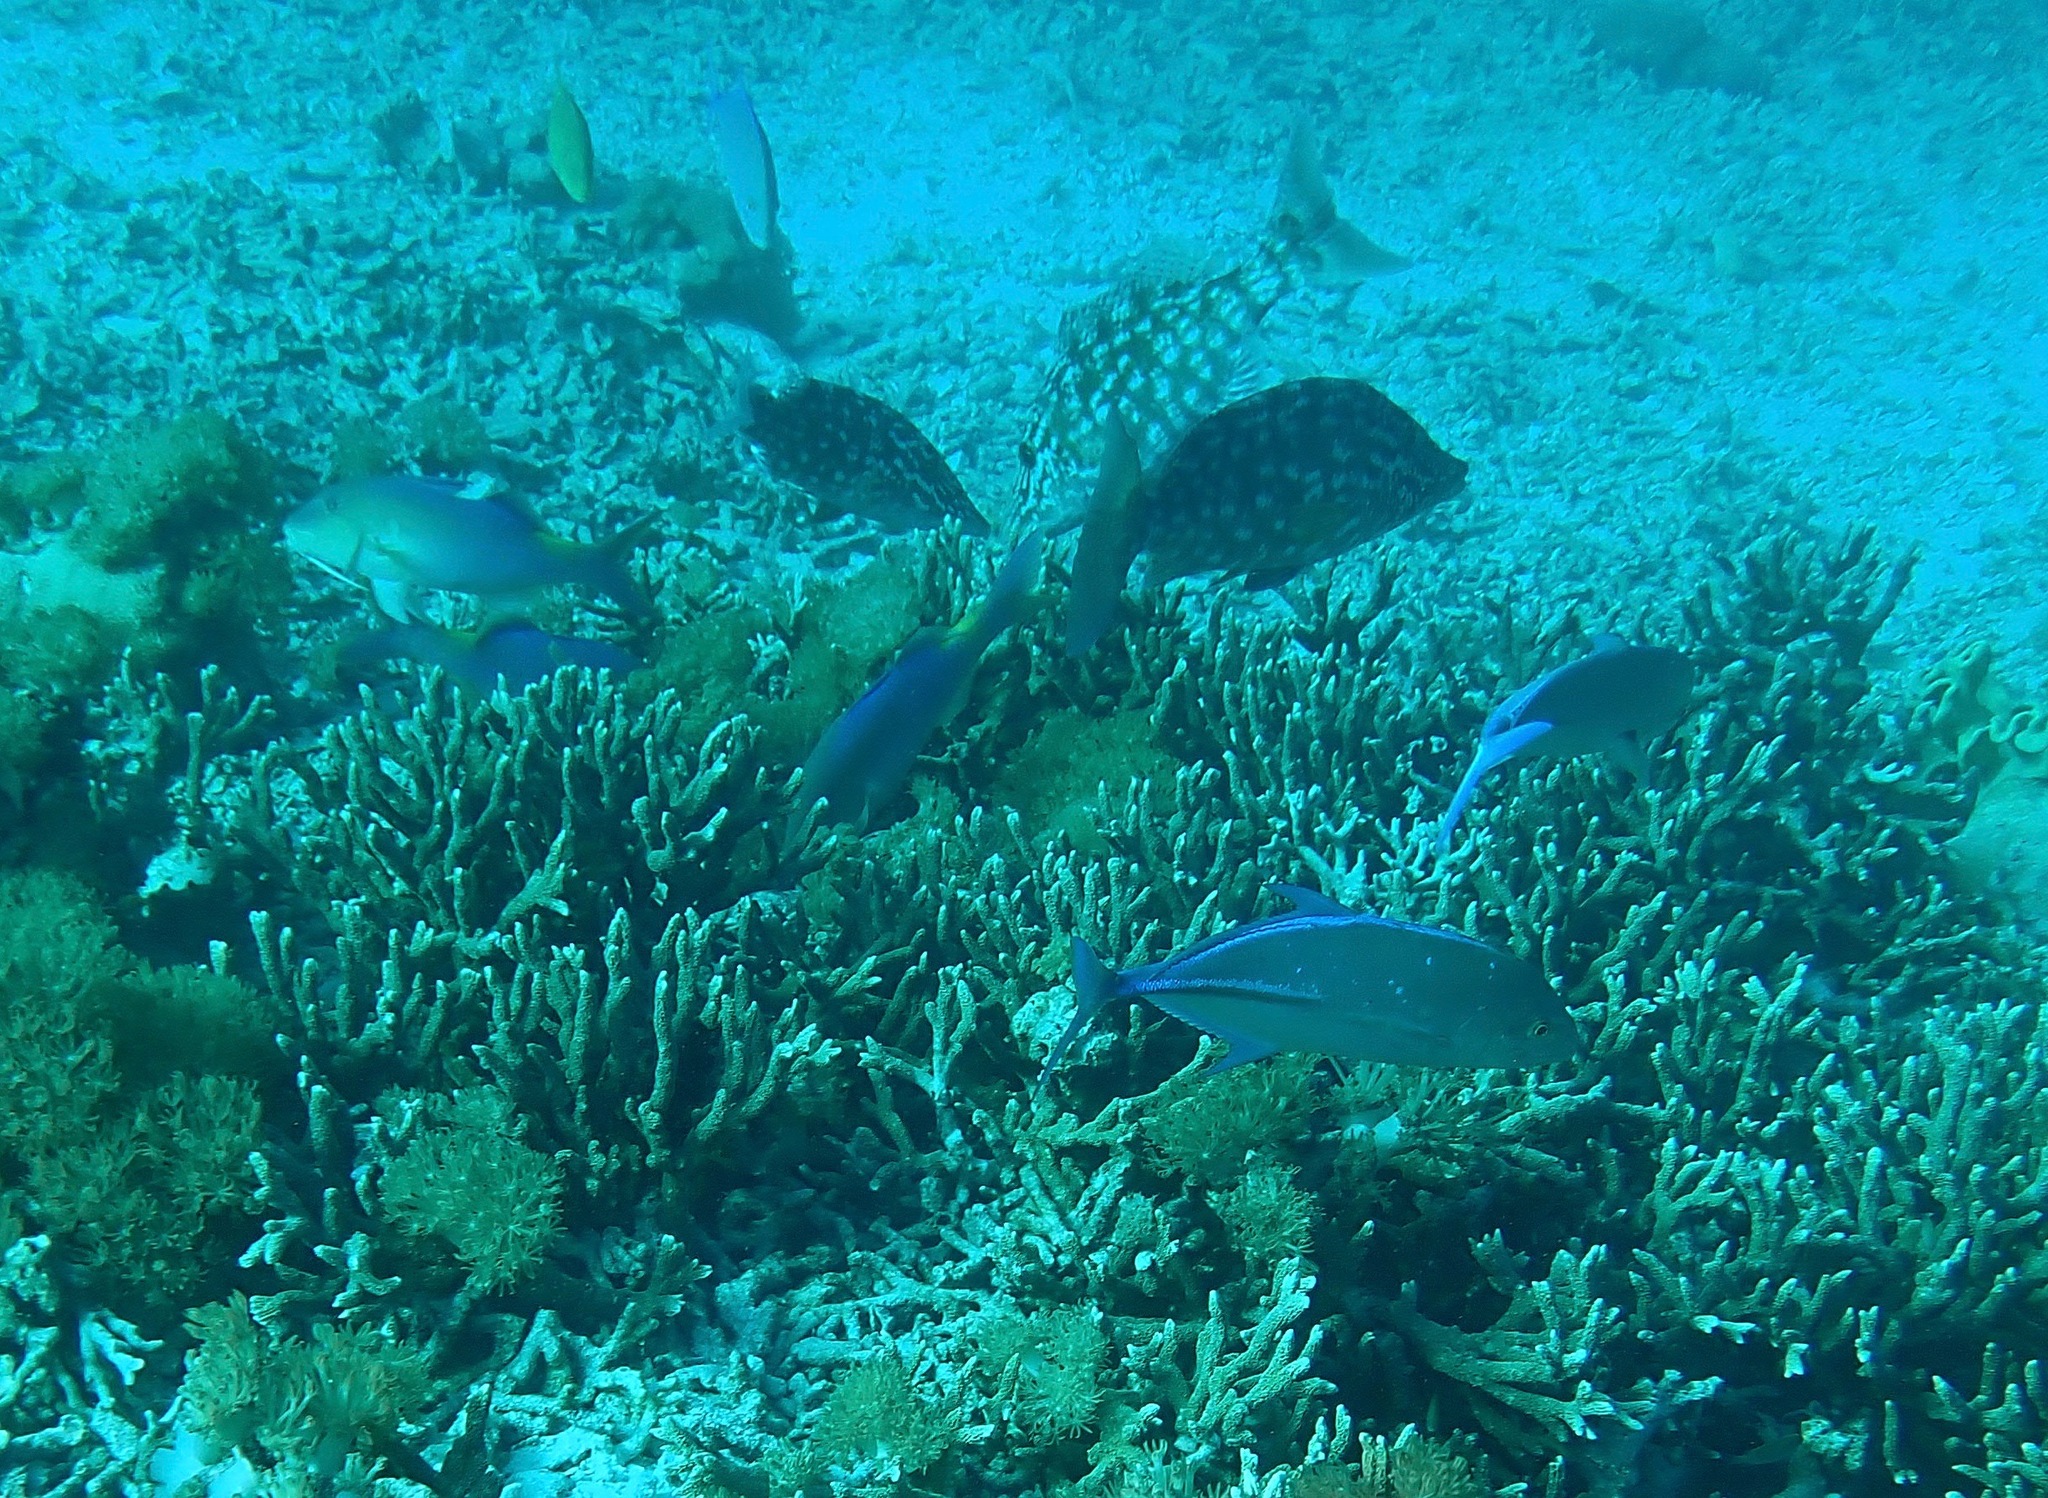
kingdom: Animalia
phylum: Chordata
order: Perciformes
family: Carangidae
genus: Caranx
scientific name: Caranx melampygus
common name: Bluefin trevally
